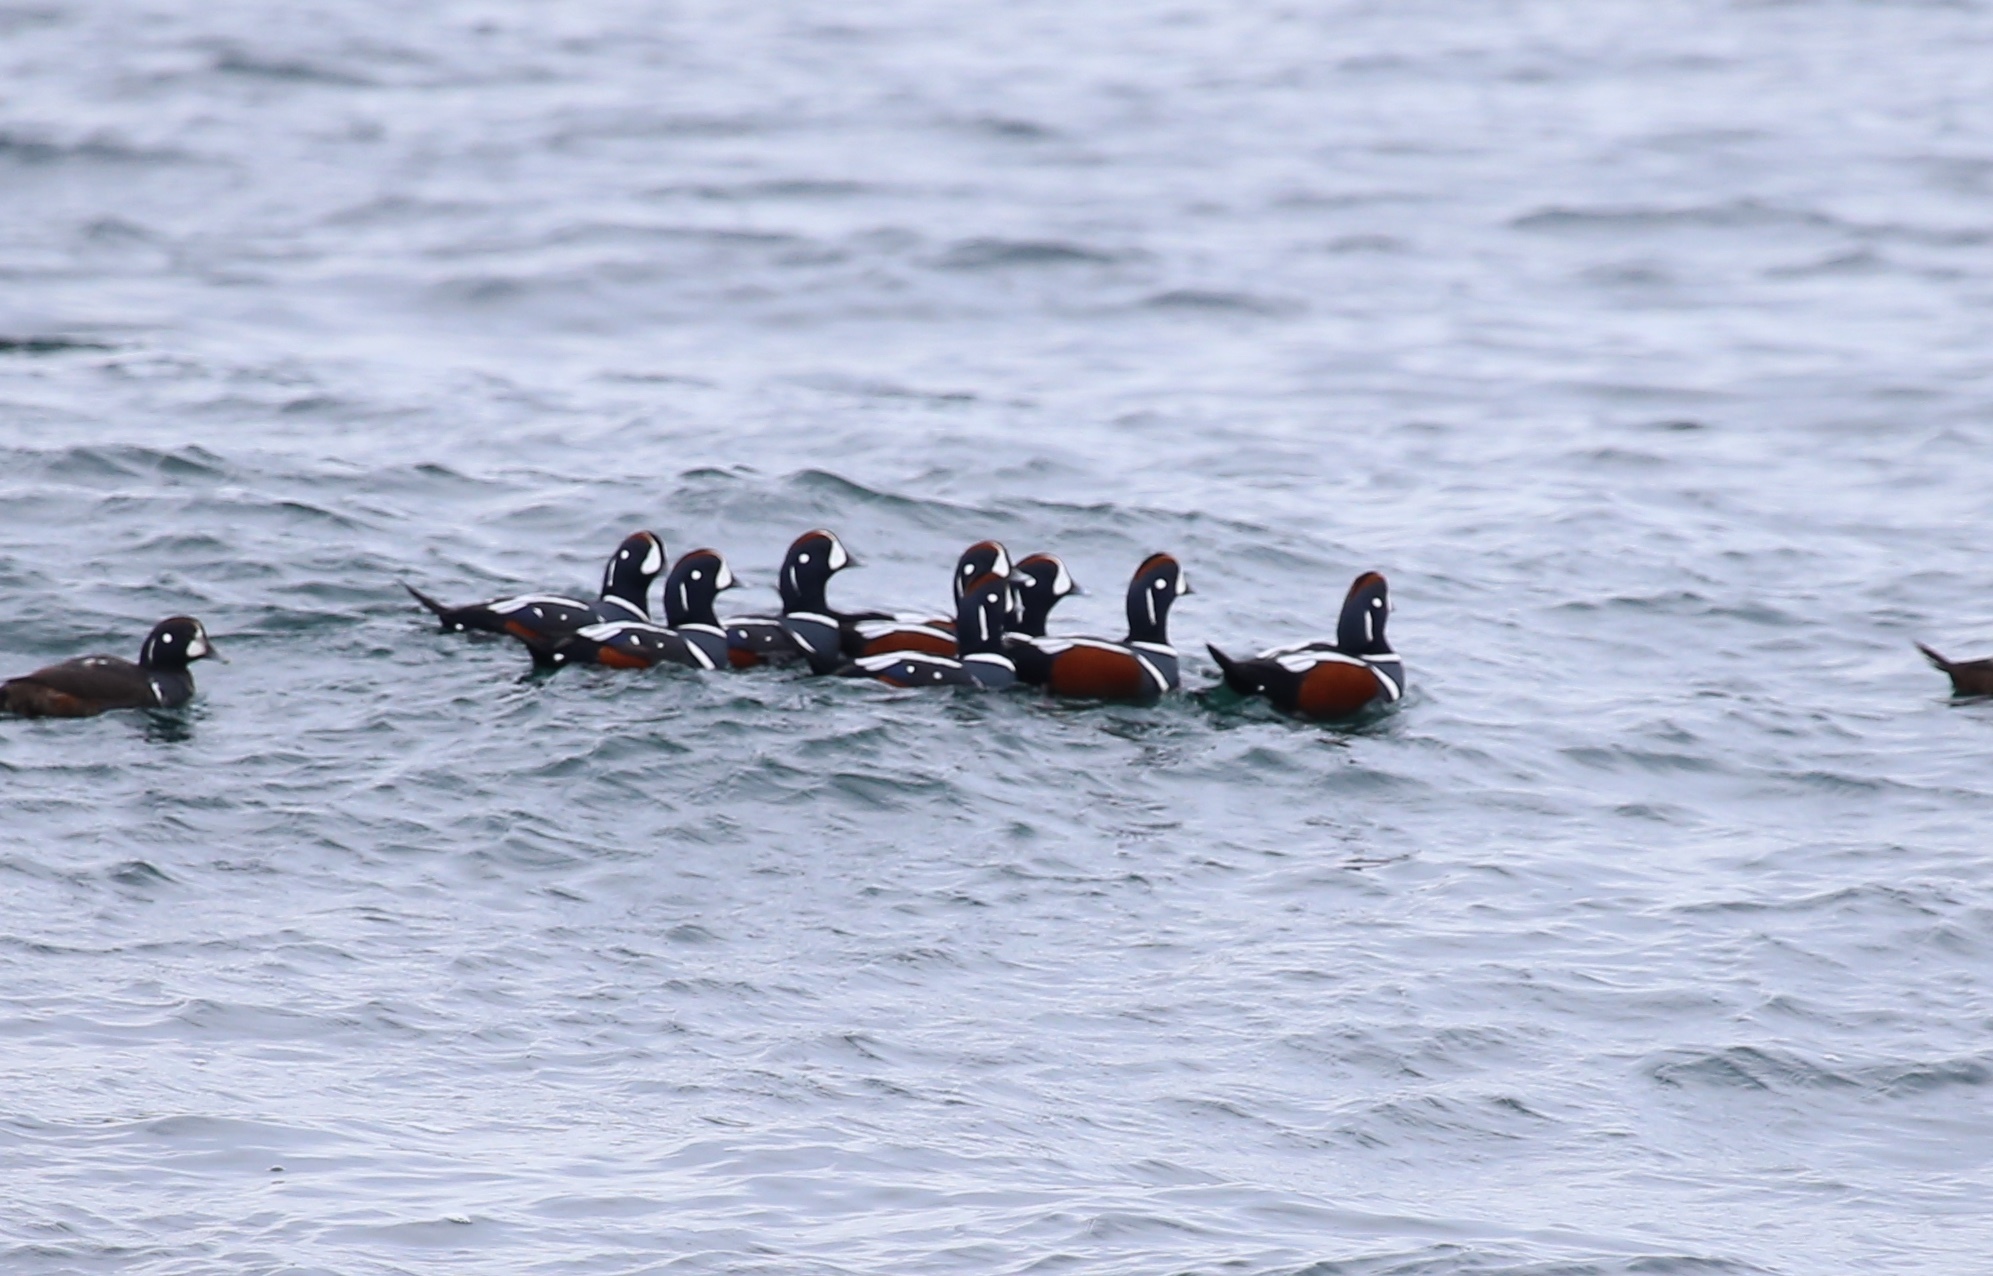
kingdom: Animalia
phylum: Chordata
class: Aves
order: Anseriformes
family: Anatidae
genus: Histrionicus
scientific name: Histrionicus histrionicus
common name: Harlequin duck
